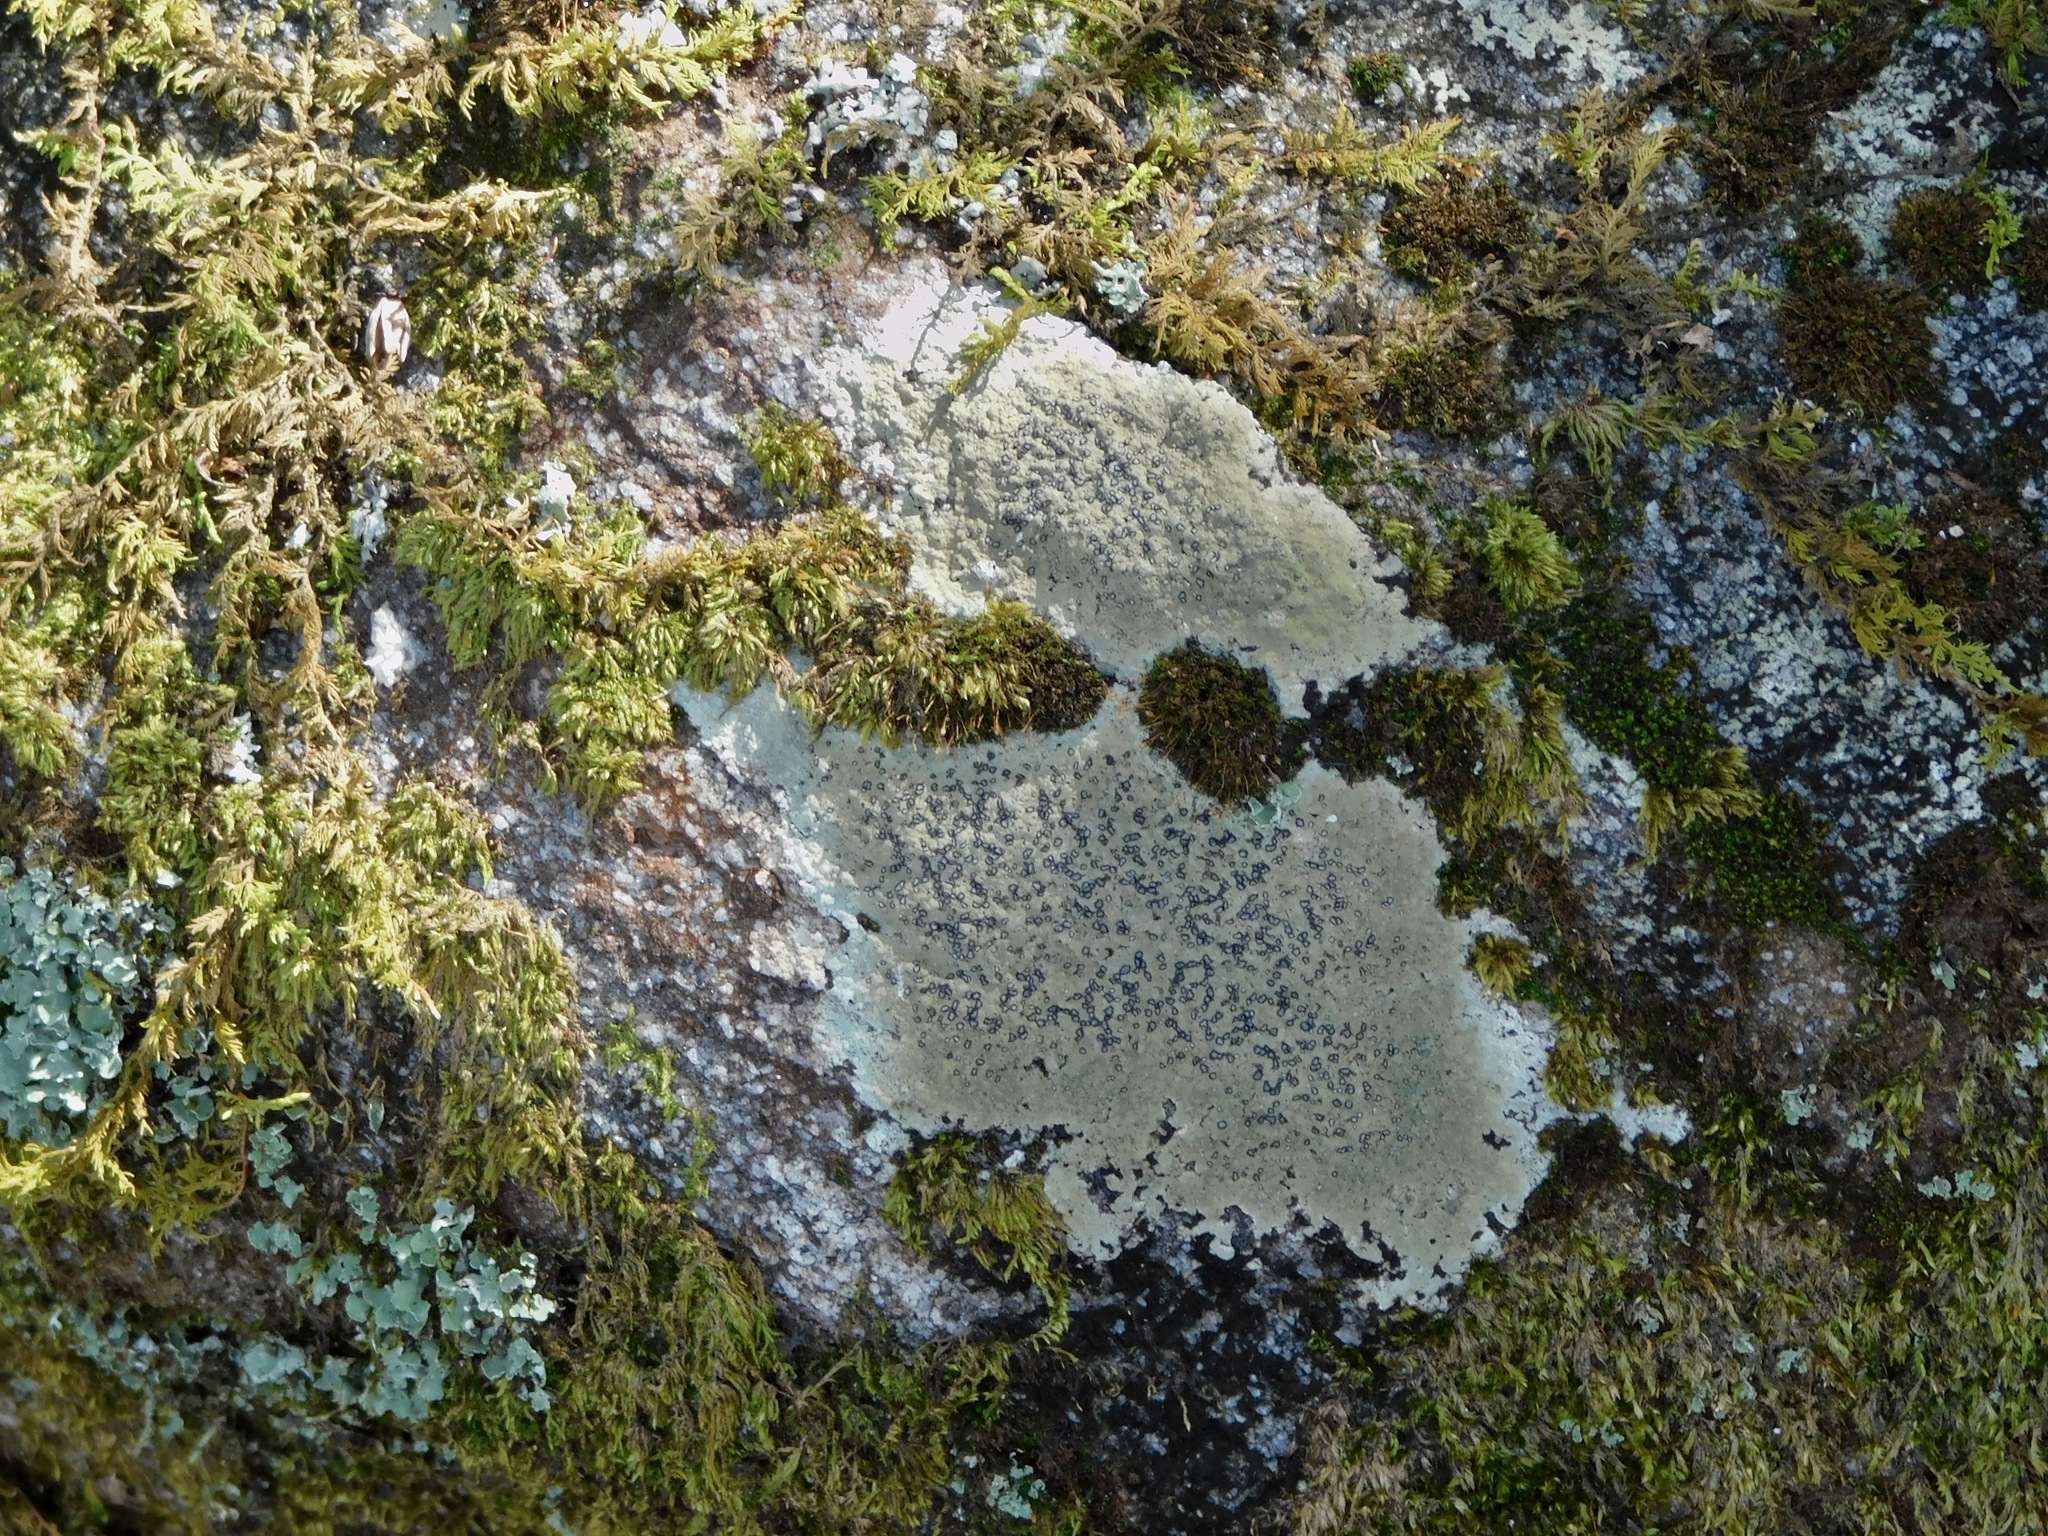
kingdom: Fungi
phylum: Ascomycota
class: Lecanoromycetes
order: Lecideales
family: Lecideaceae
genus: Porpidia
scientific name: Porpidia albocaerulescens
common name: Smokey-eyed boulder lichen
